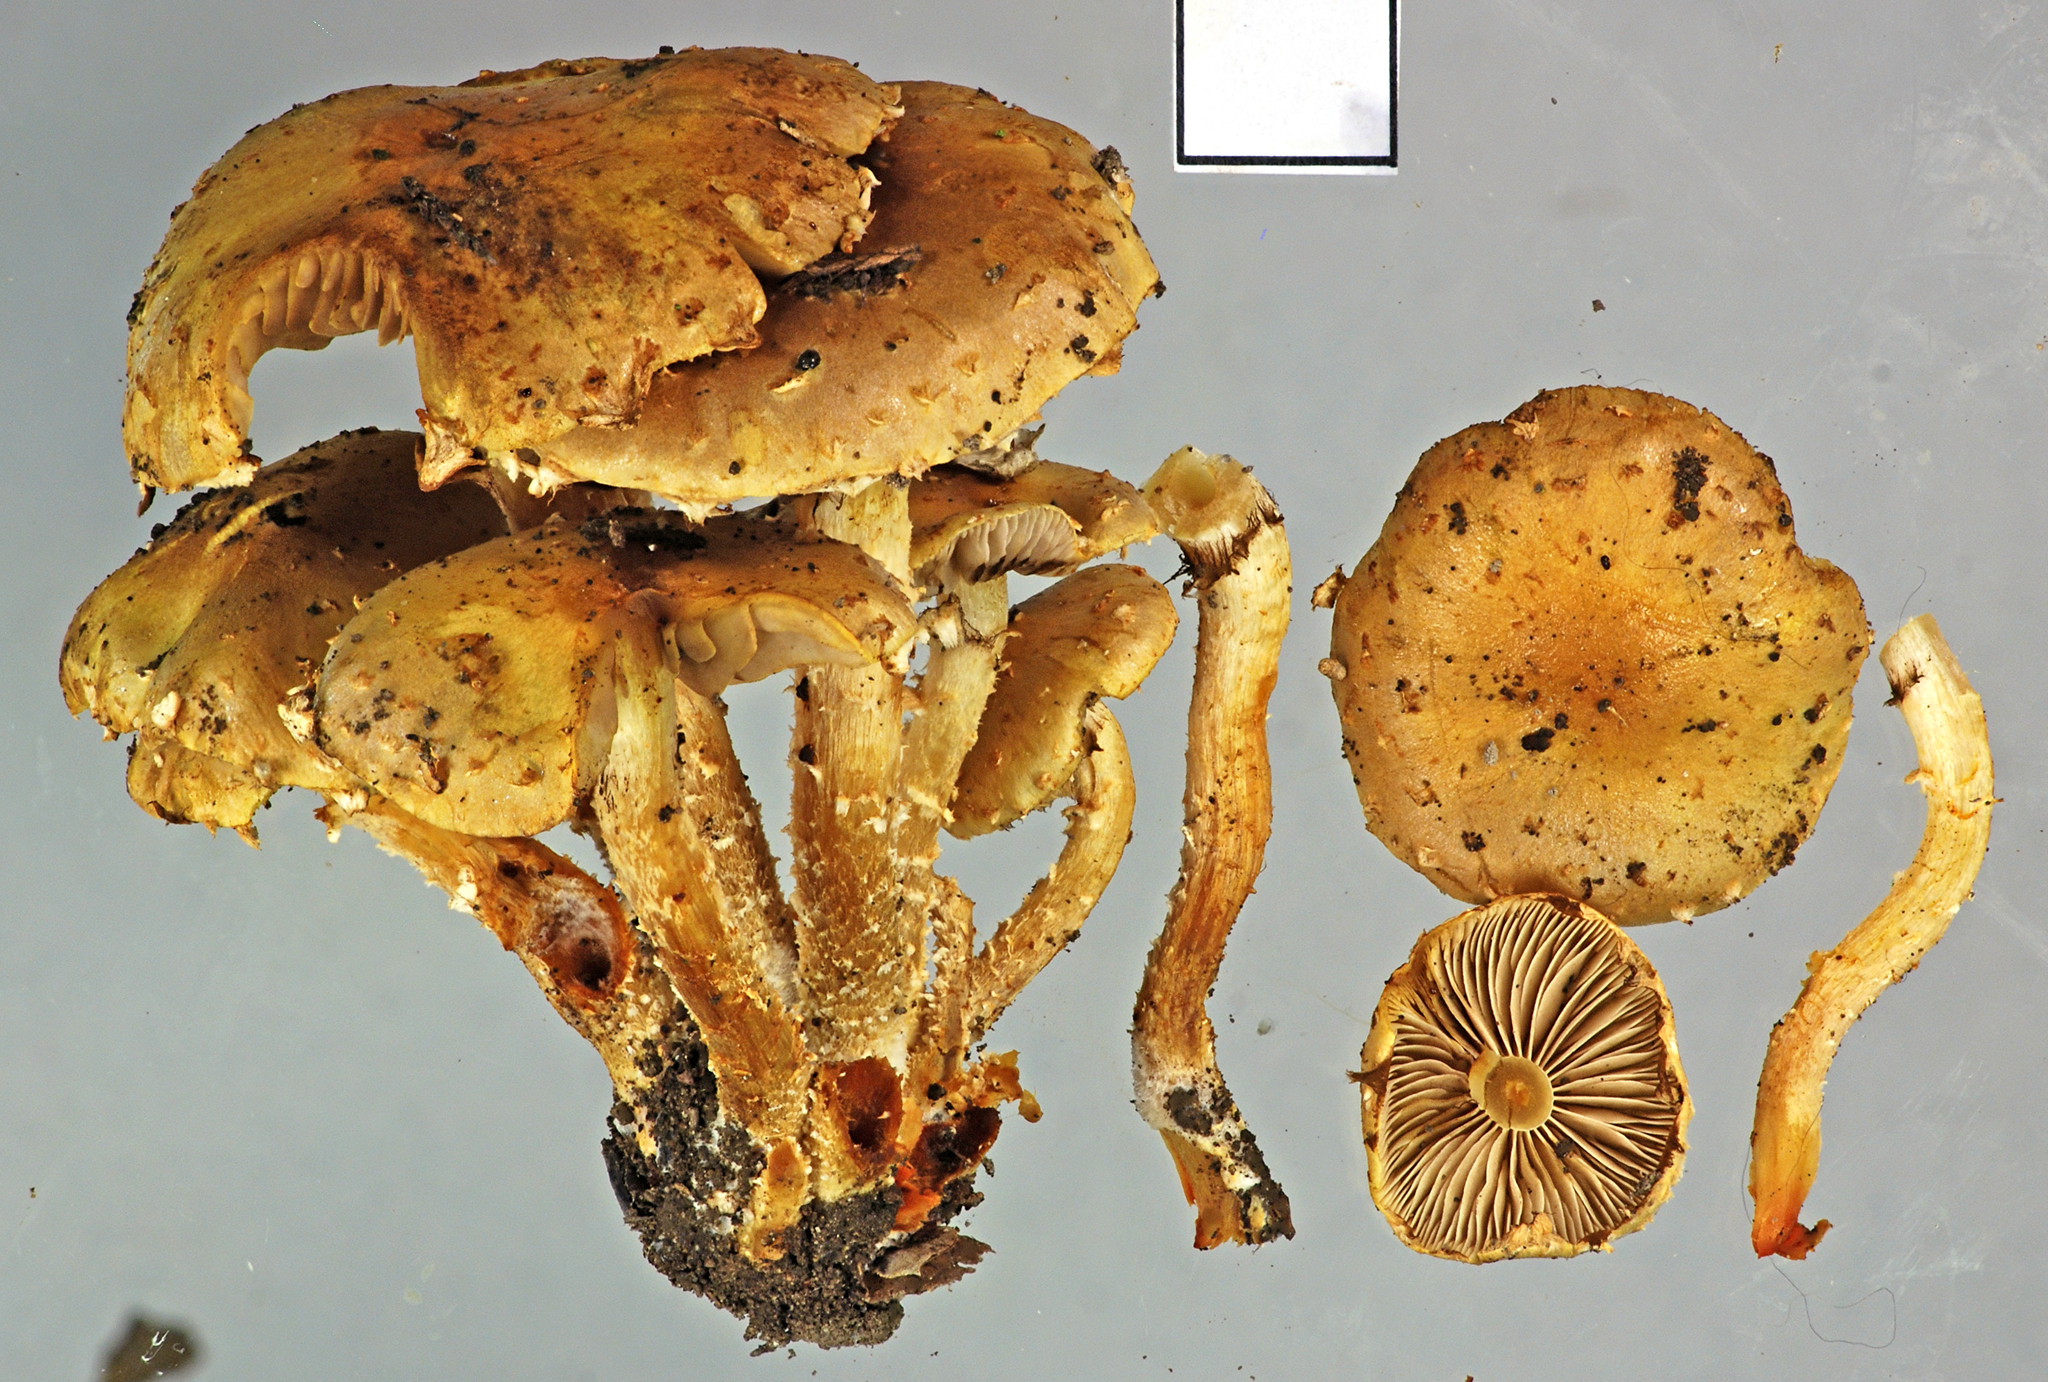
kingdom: Fungi
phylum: Basidiomycota
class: Agaricomycetes
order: Agaricales
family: Strophariaceae
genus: Pholiota
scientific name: Pholiota subflammans
